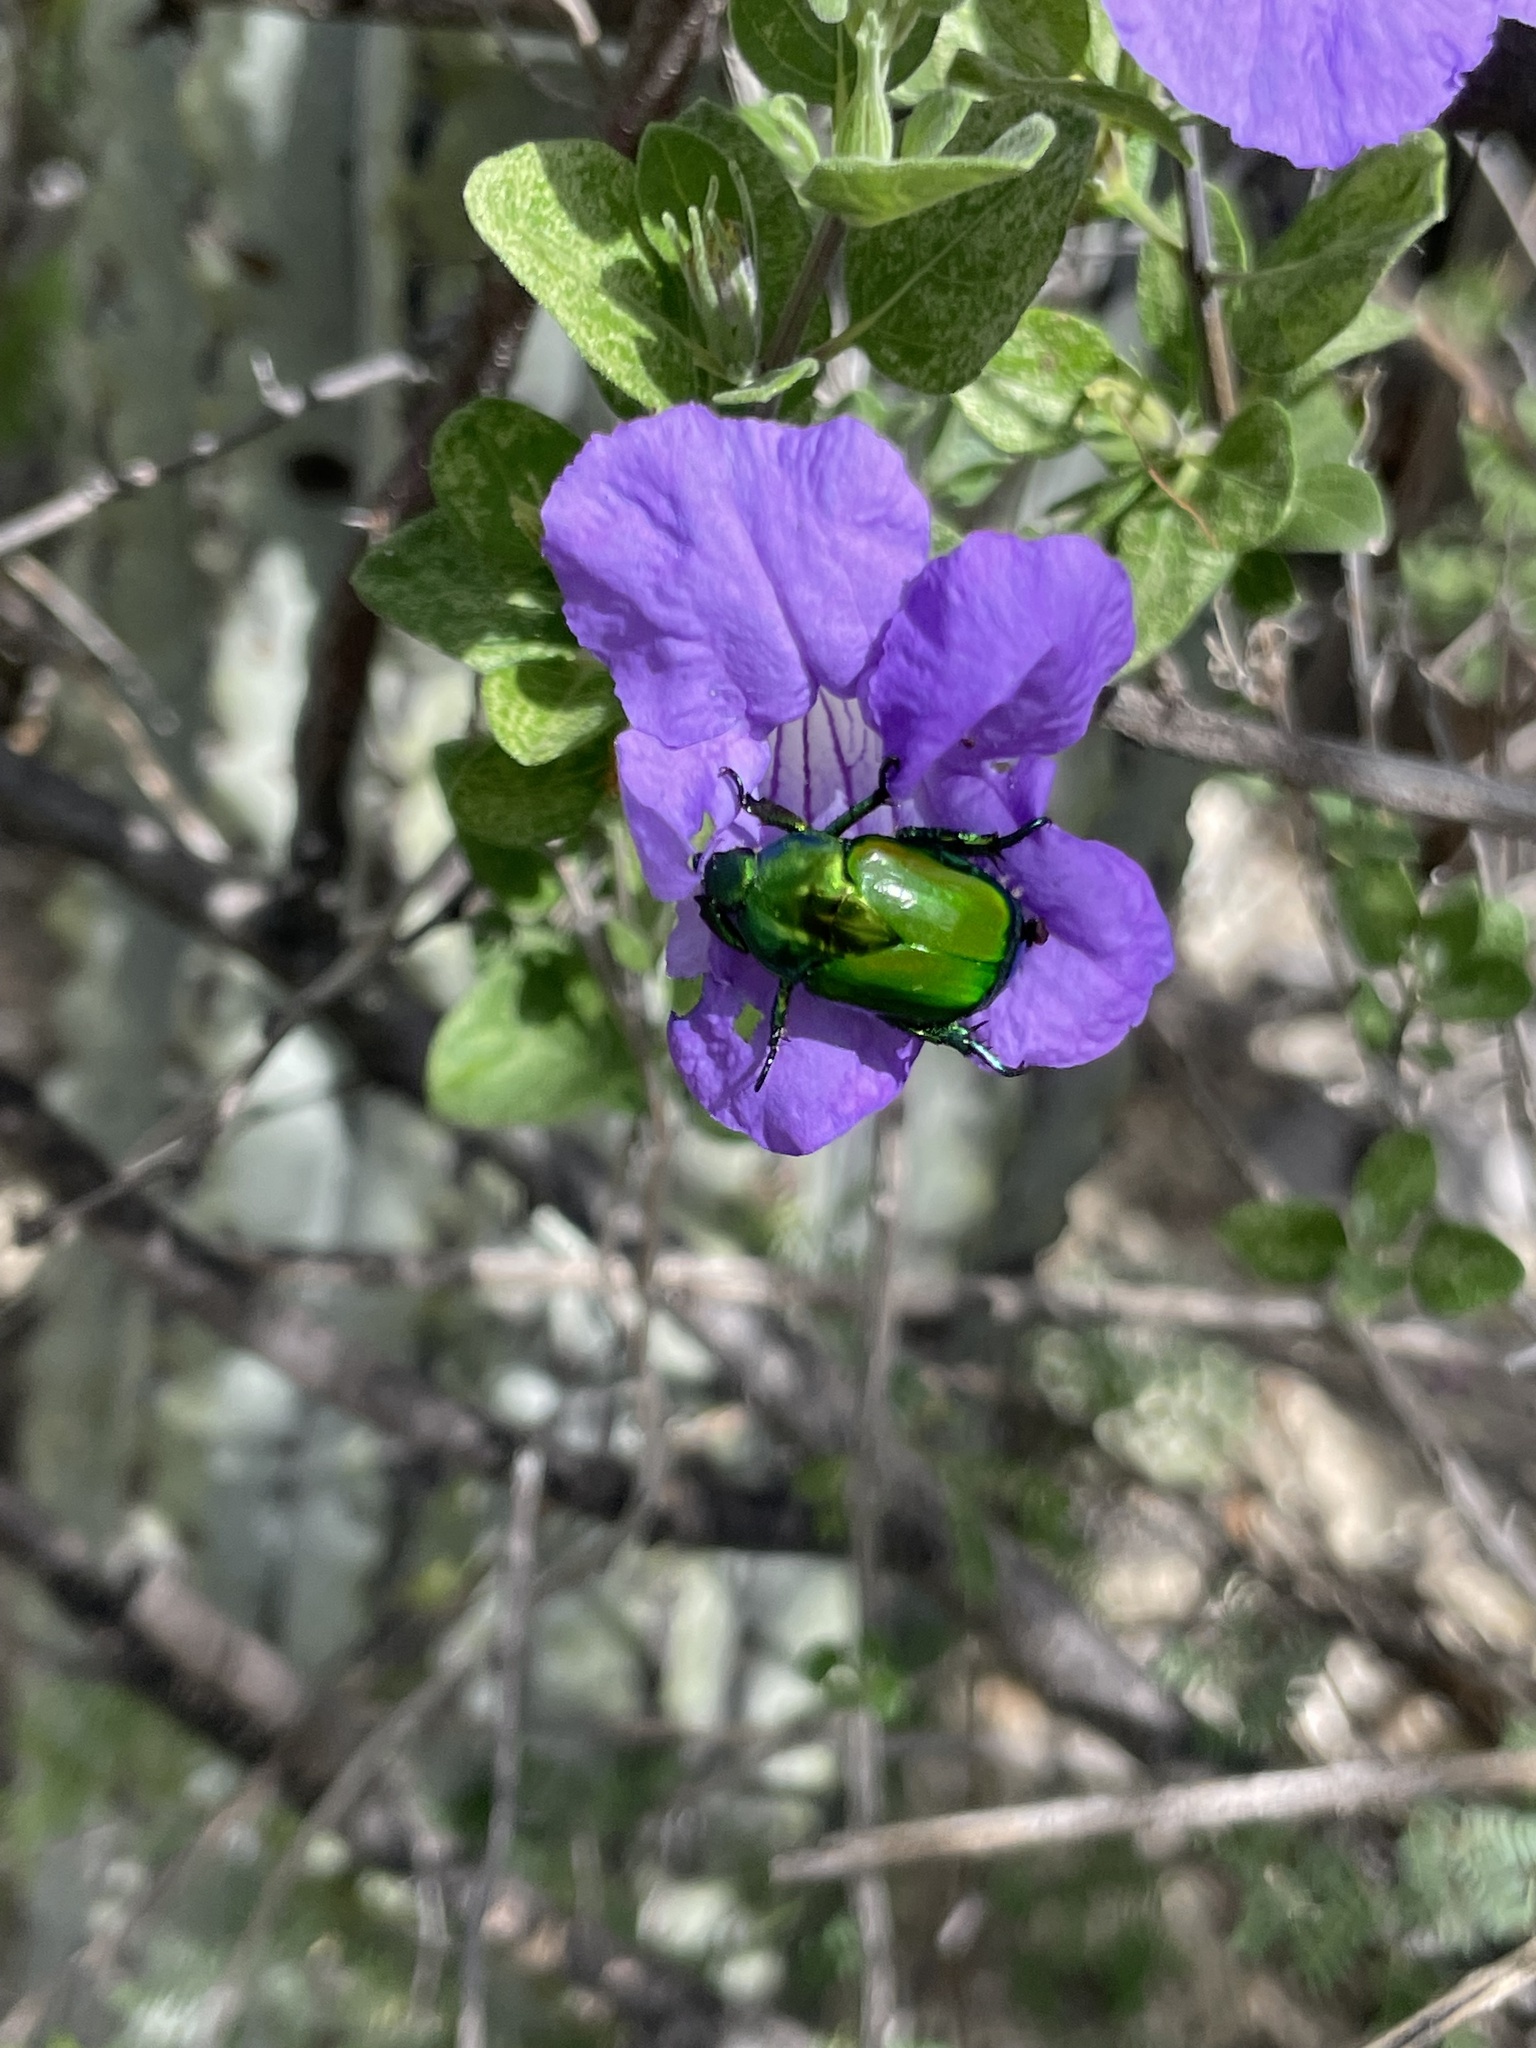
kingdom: Animalia
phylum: Arthropoda
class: Insecta
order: Coleoptera
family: Scarabaeidae
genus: Calomacraspis
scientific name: Calomacraspis splendens
